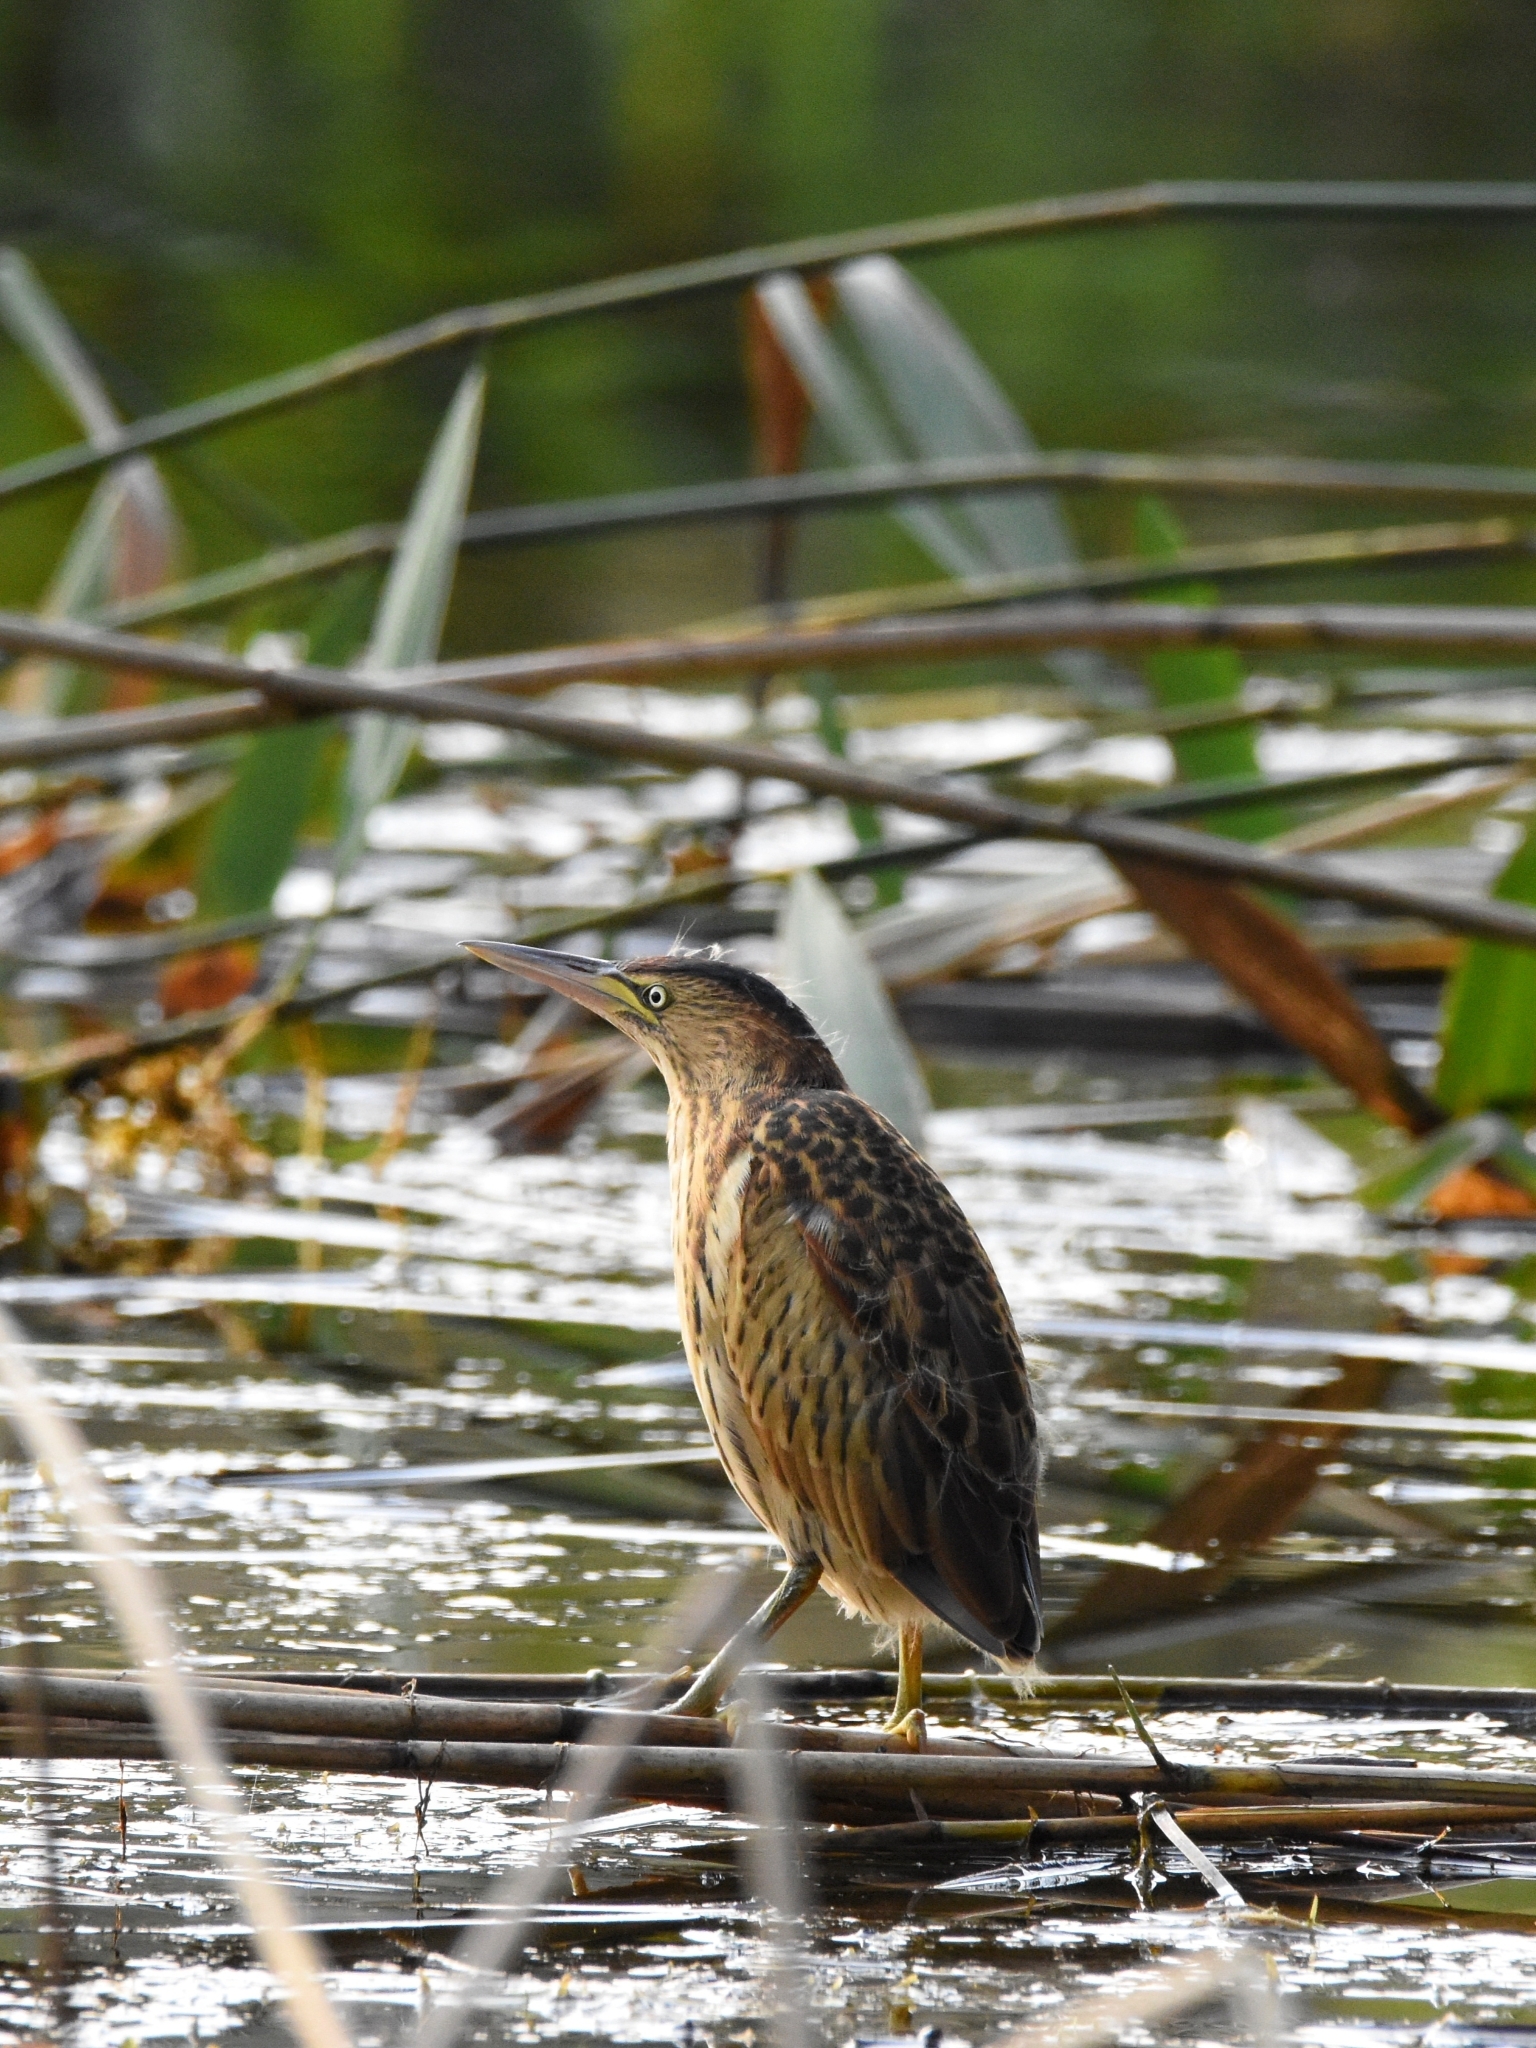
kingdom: Animalia
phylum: Chordata
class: Aves
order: Pelecaniformes
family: Ardeidae
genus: Ixobrychus
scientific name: Ixobrychus minutus
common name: Little bittern
